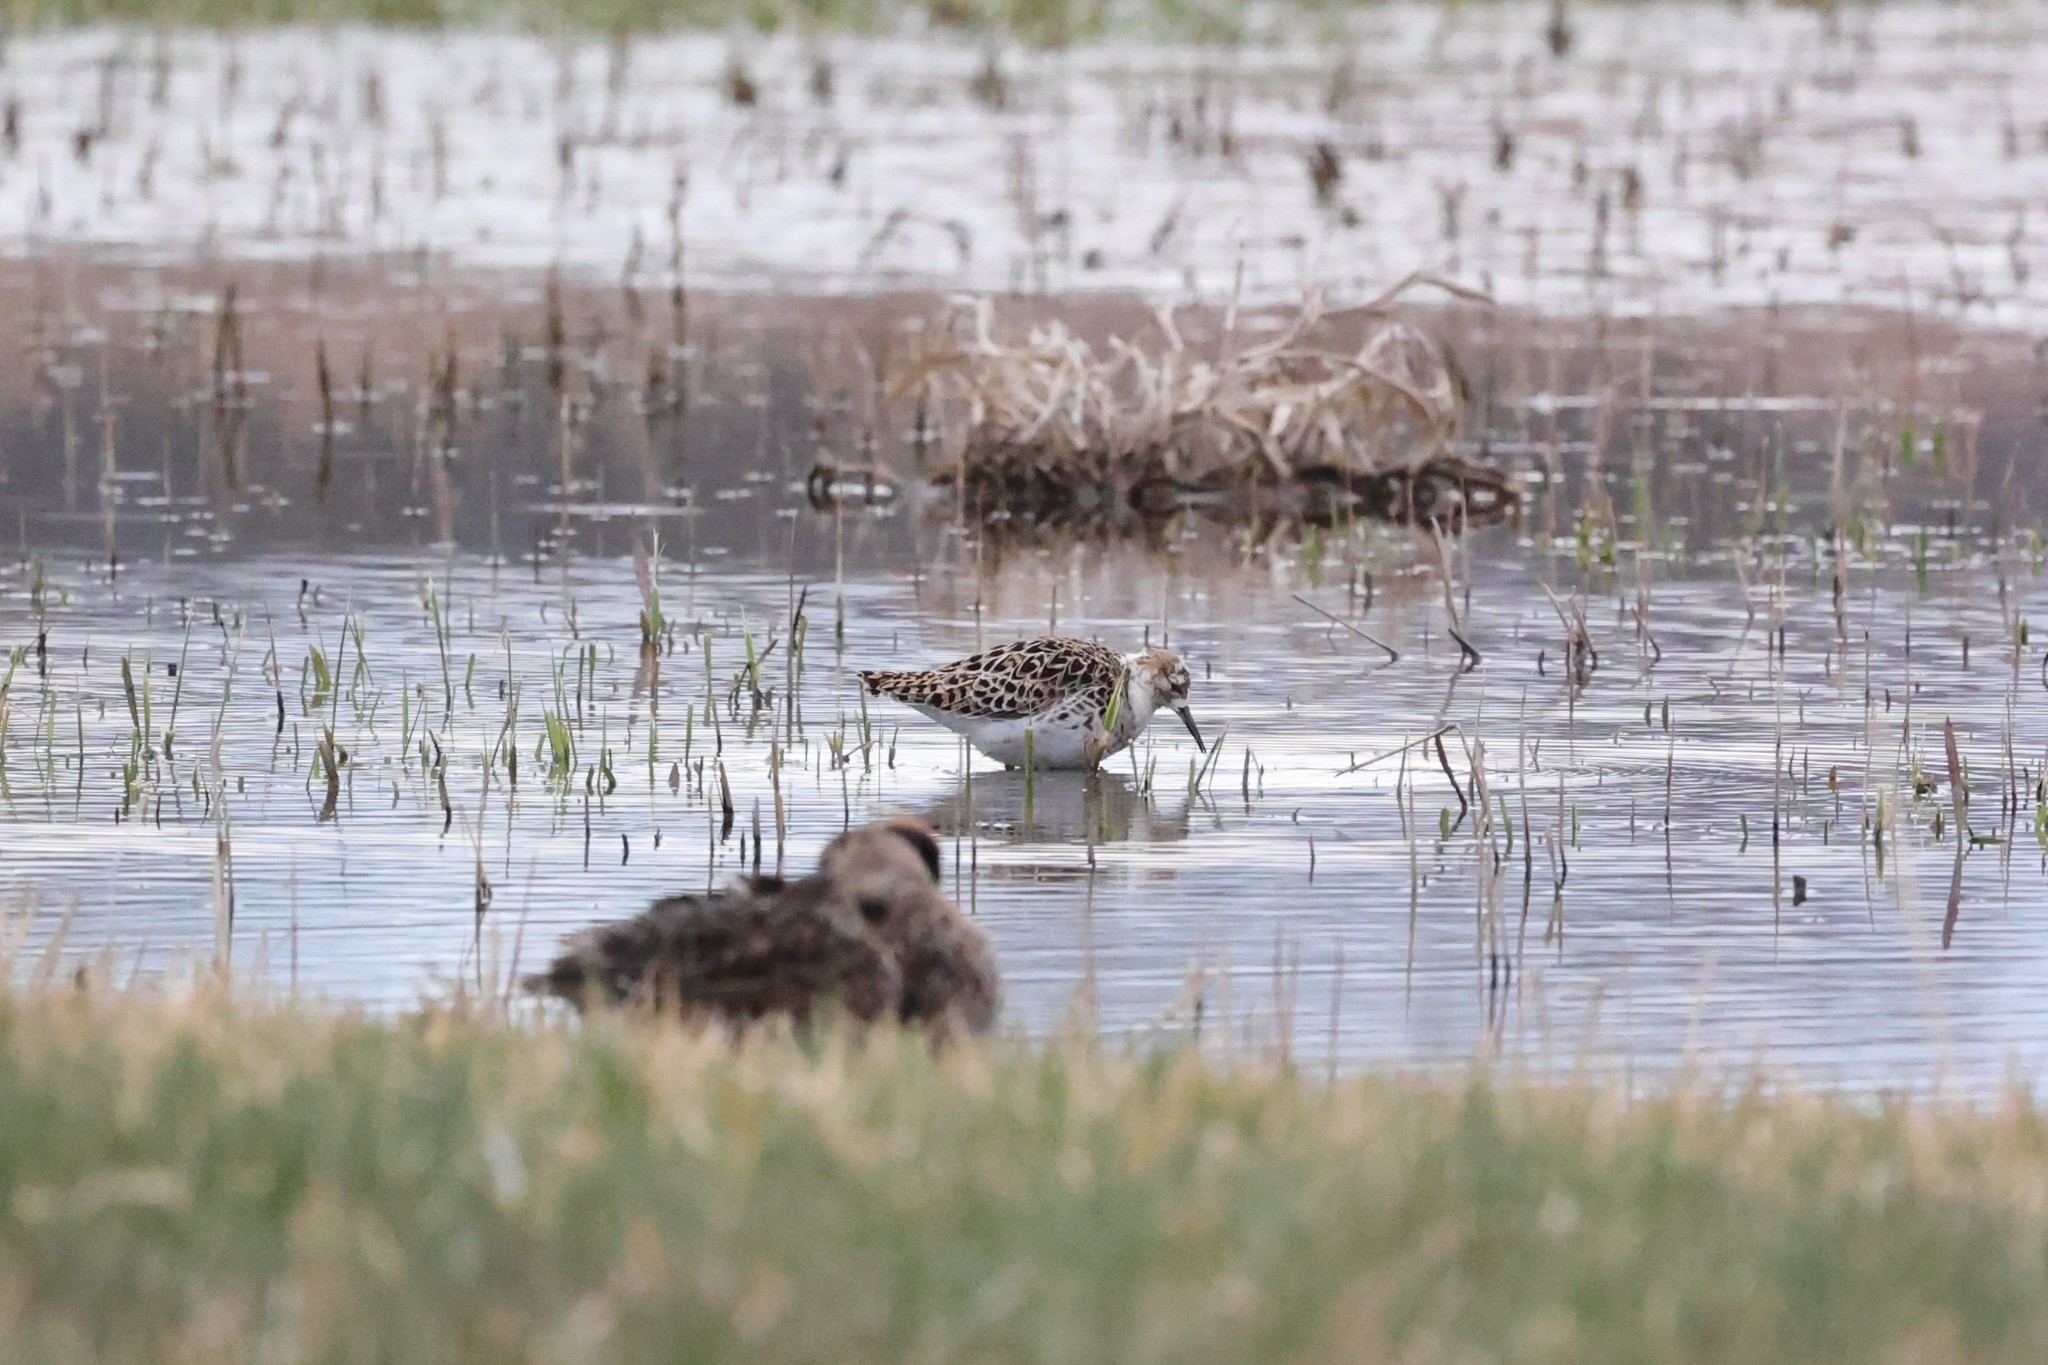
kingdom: Animalia
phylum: Chordata
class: Aves
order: Charadriiformes
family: Scolopacidae
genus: Calidris
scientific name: Calidris pugnax
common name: Ruff
